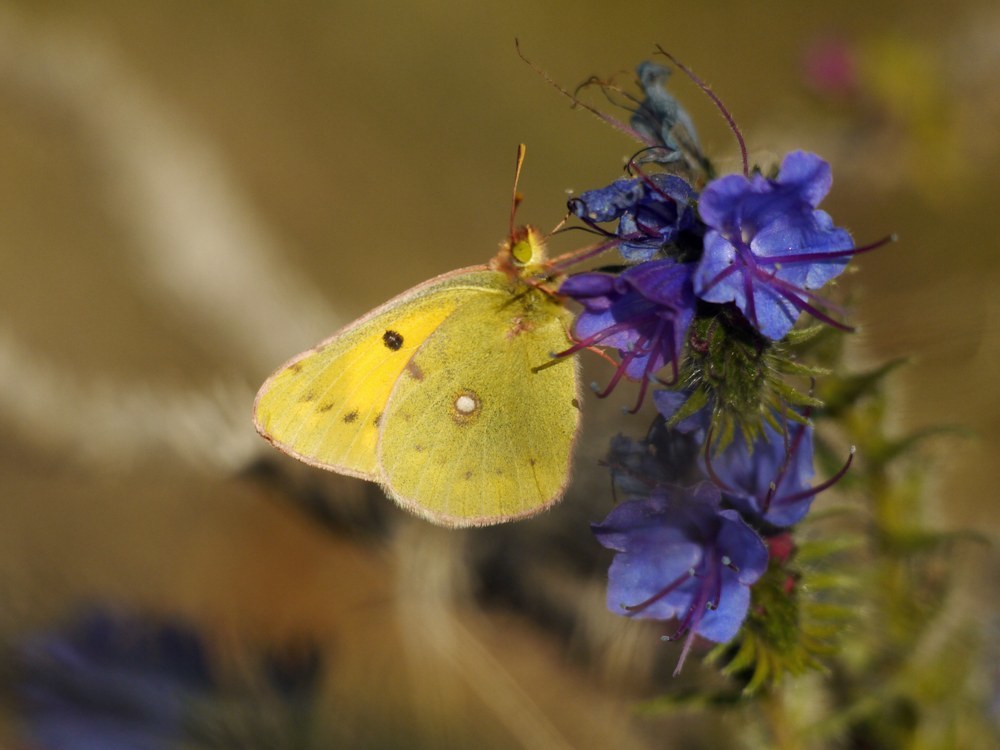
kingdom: Animalia
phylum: Arthropoda
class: Insecta
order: Lepidoptera
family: Pieridae
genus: Colias
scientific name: Colias erate
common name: Eastern pale clouded yellow
